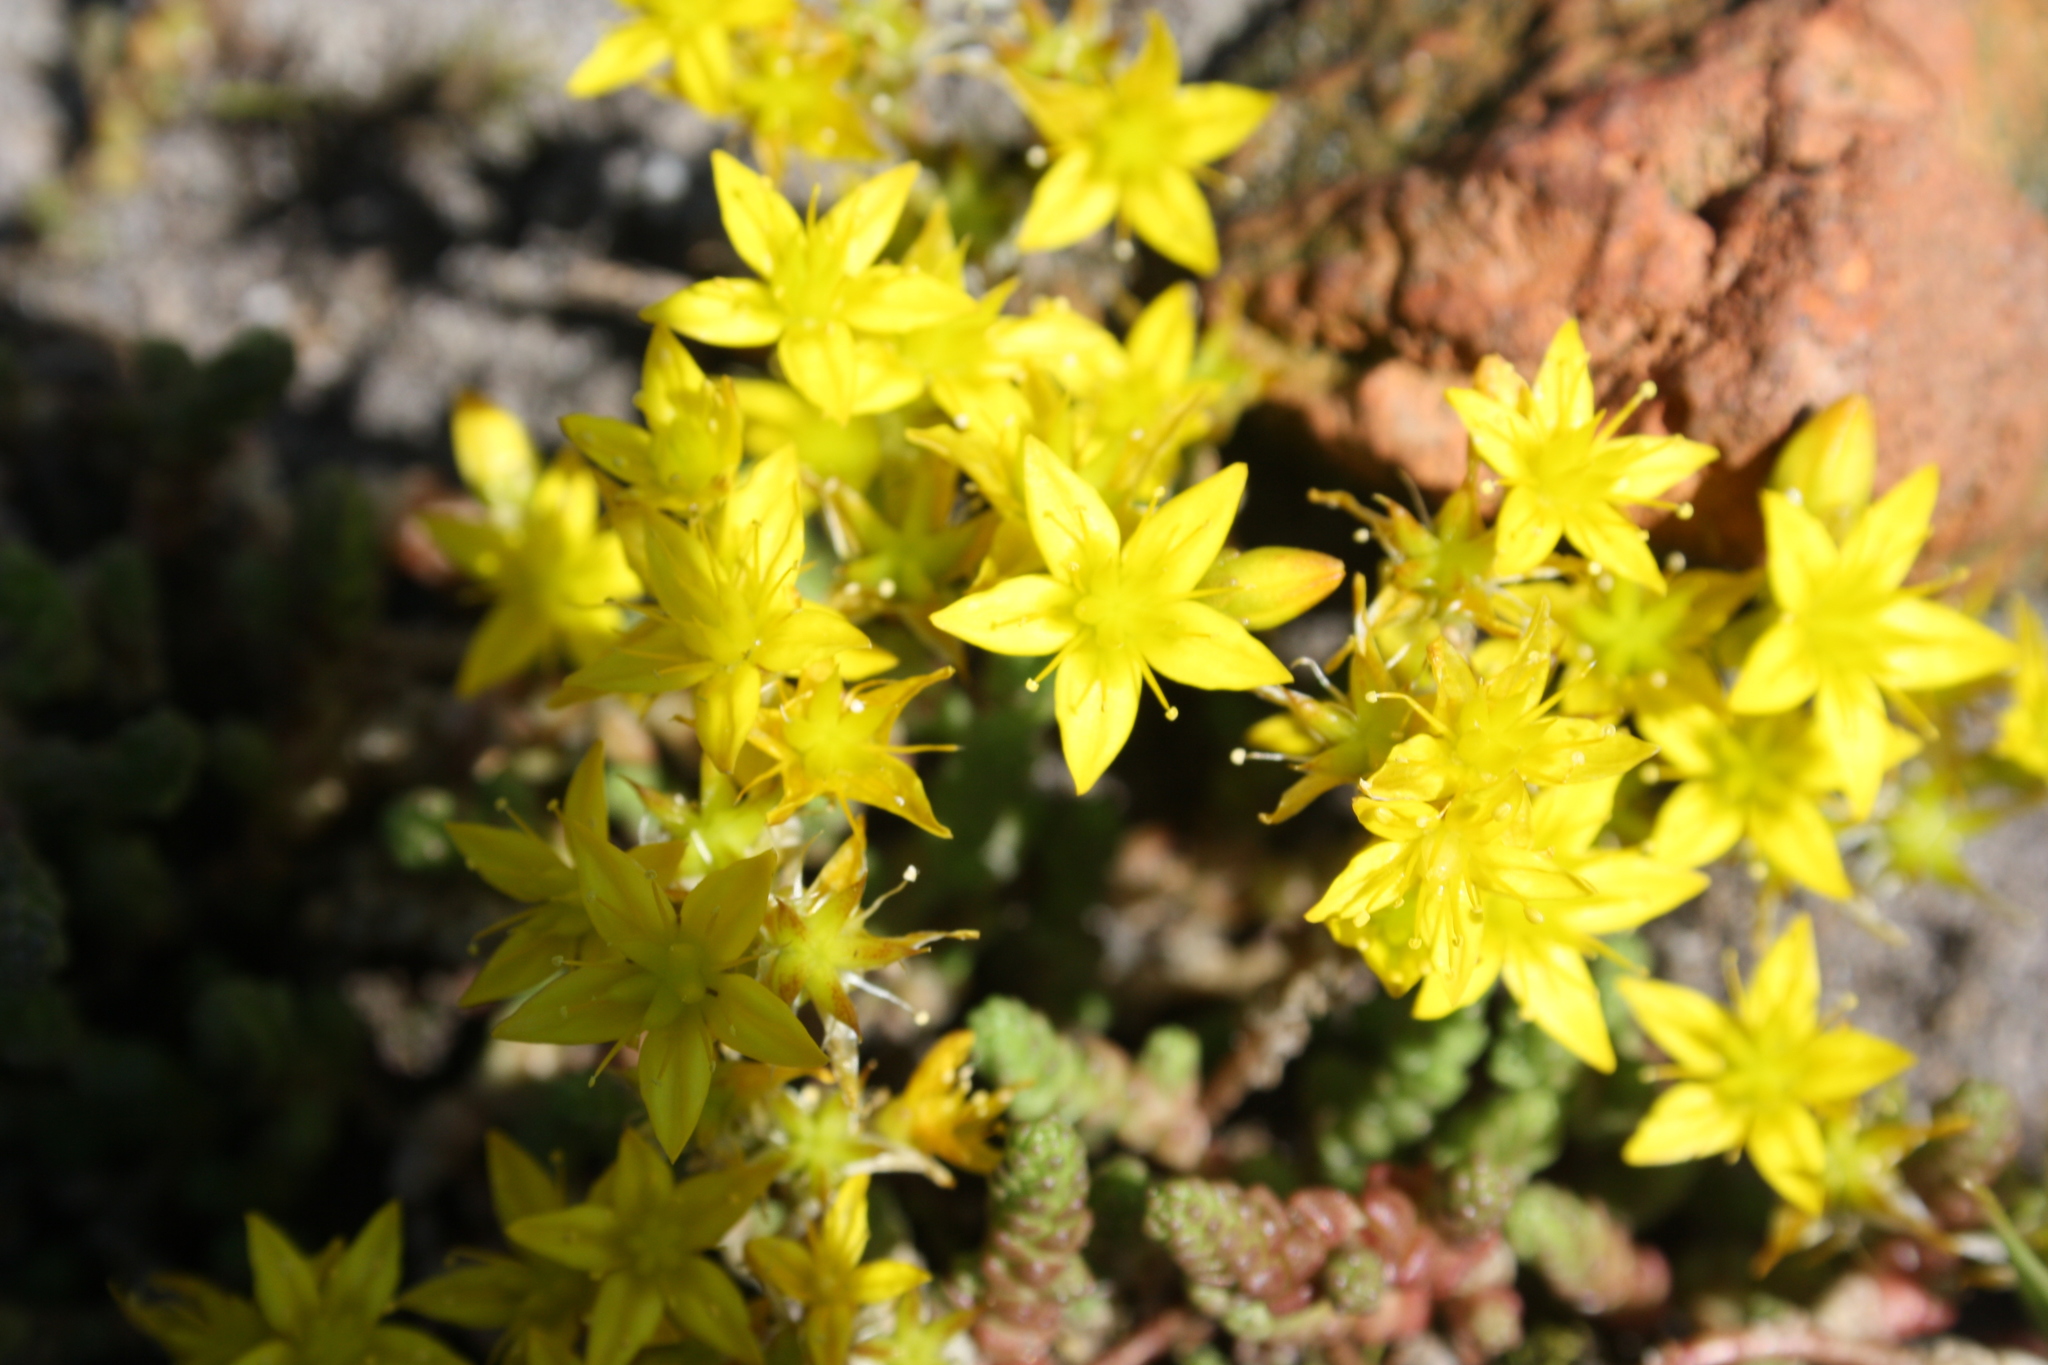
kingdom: Plantae
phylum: Tracheophyta
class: Magnoliopsida
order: Saxifragales
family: Crassulaceae
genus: Sedum
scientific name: Sedum acre
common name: Biting stonecrop
